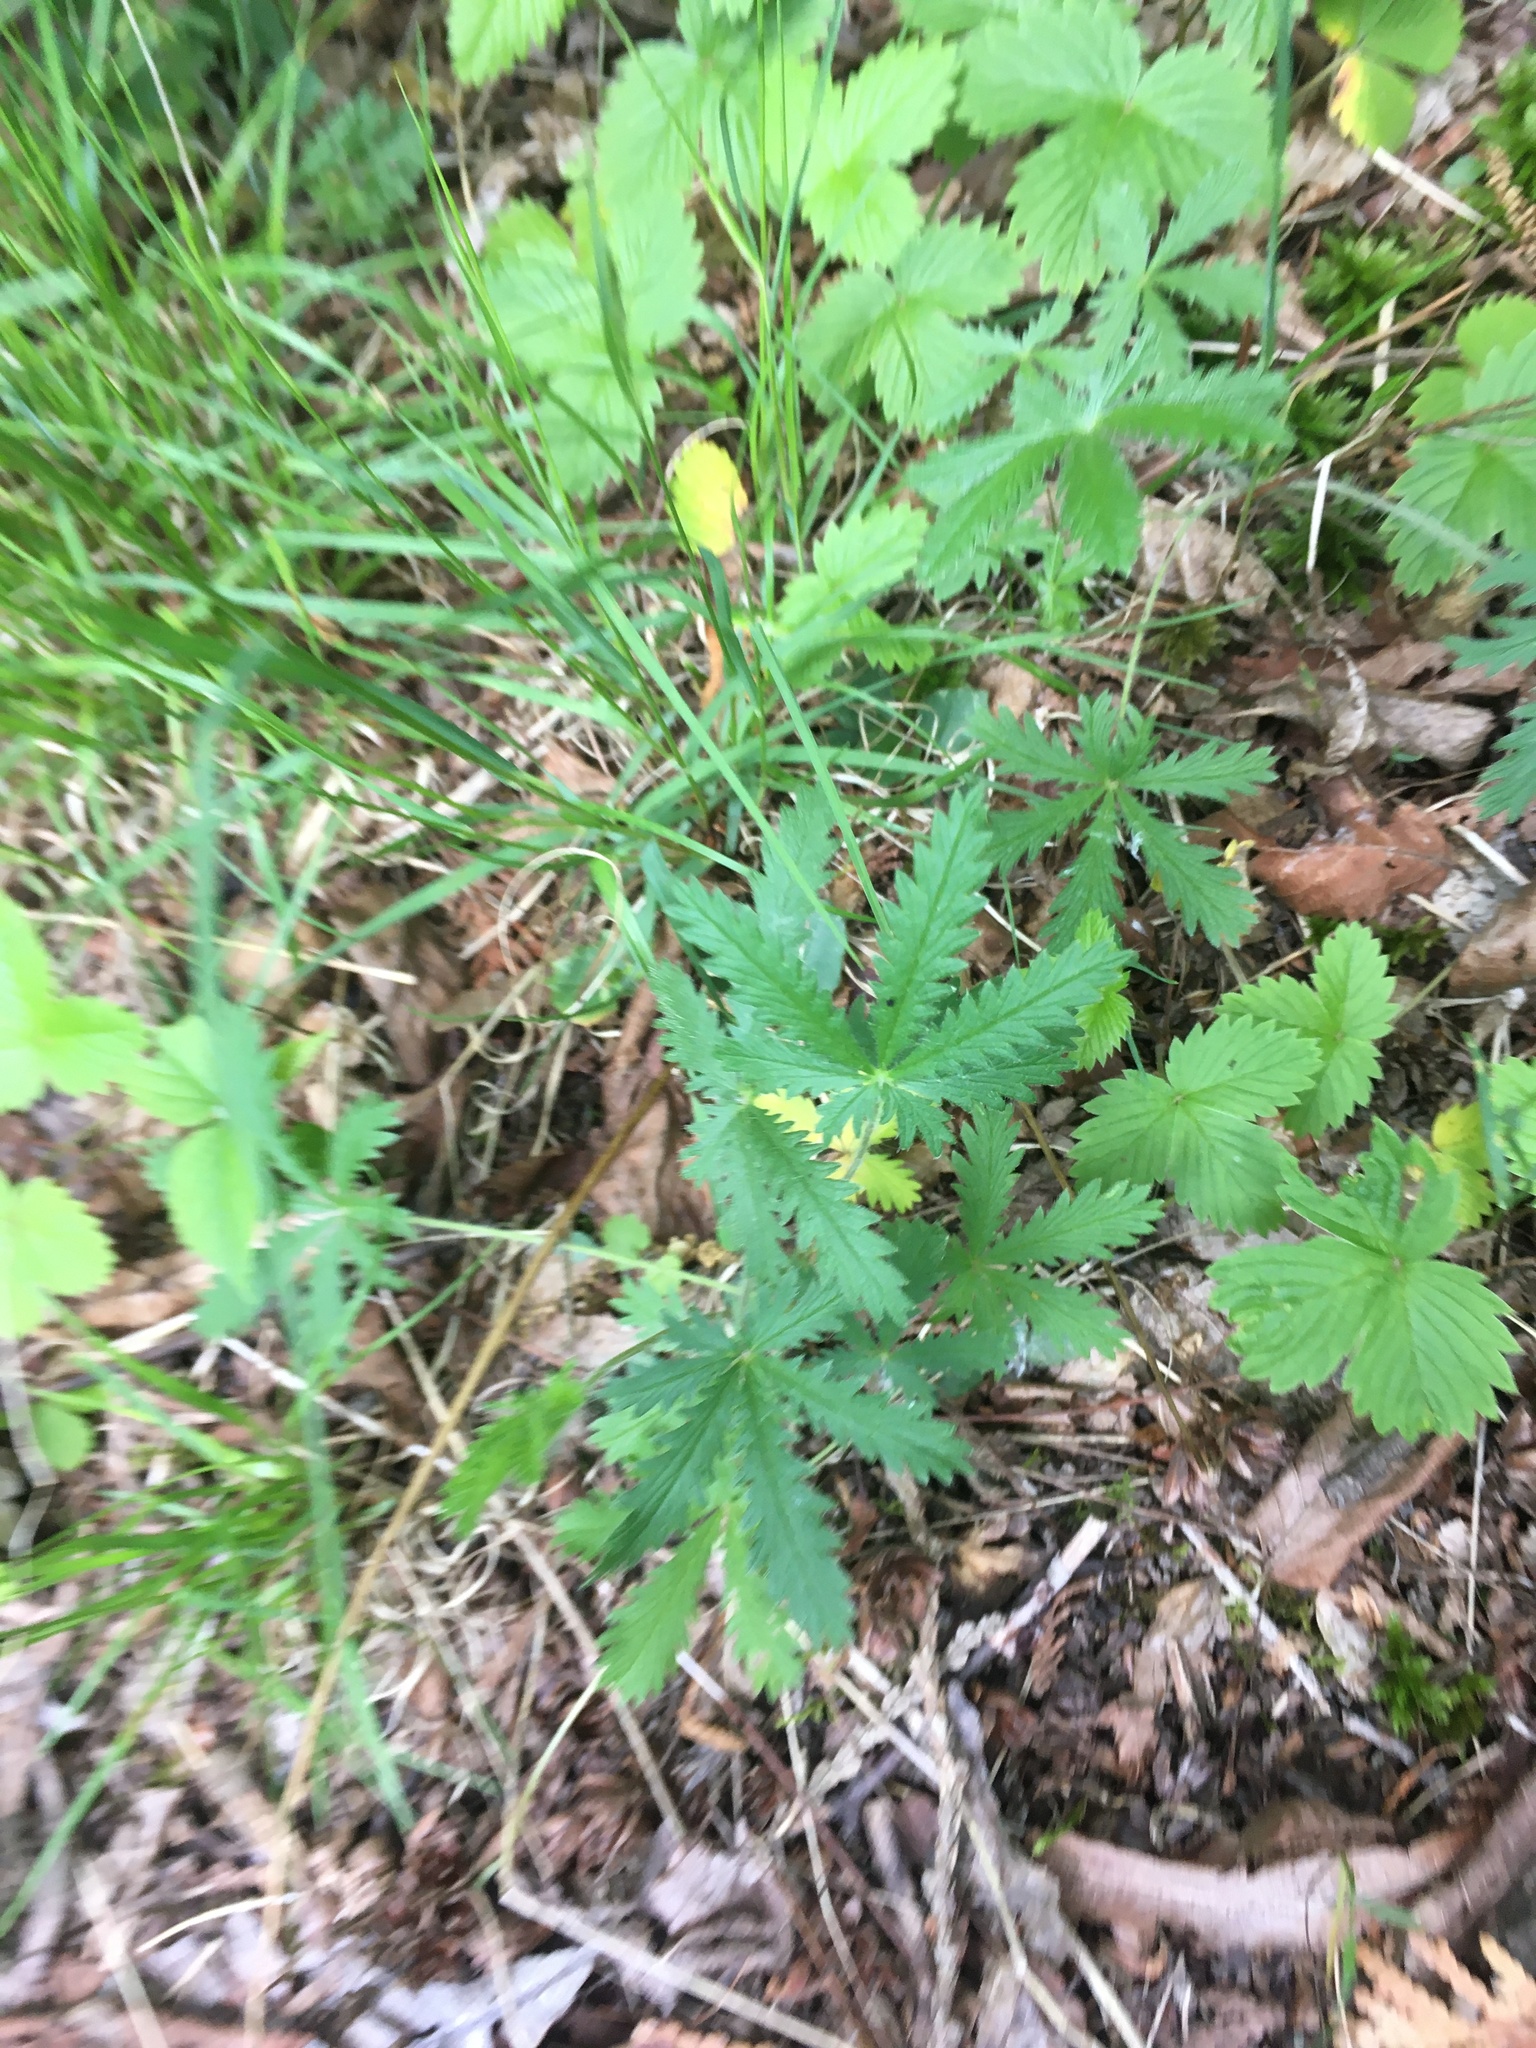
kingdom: Plantae
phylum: Tracheophyta
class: Magnoliopsida
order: Rosales
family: Rosaceae
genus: Potentilla
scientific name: Potentilla recta
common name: Sulphur cinquefoil
